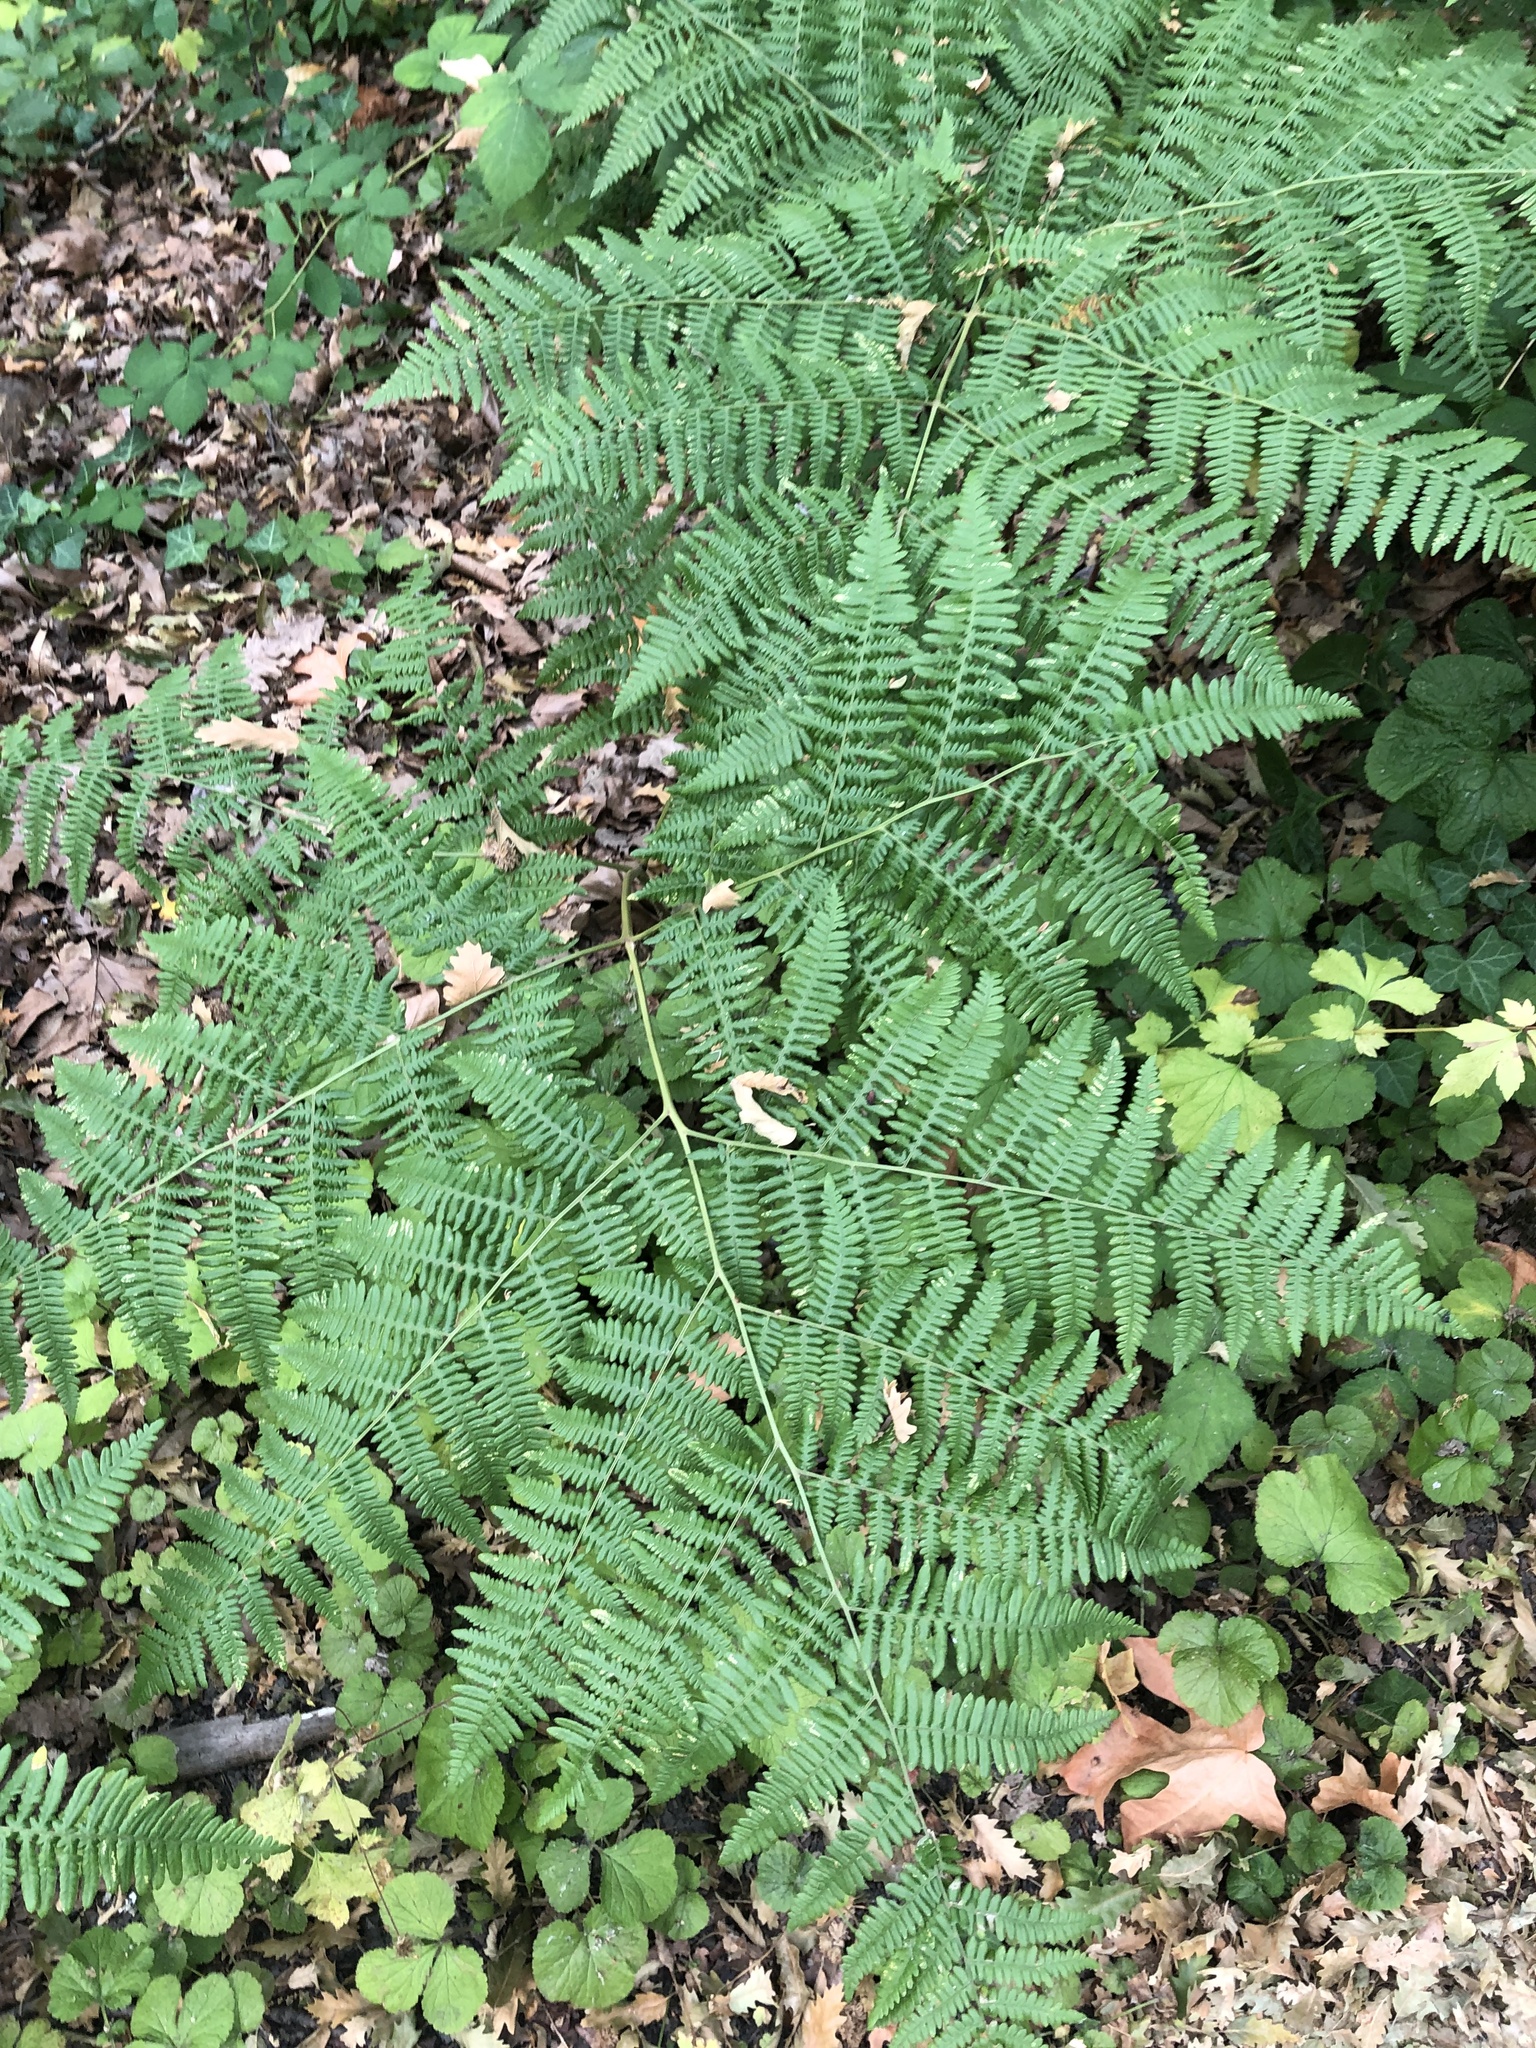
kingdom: Plantae
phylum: Tracheophyta
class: Polypodiopsida
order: Polypodiales
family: Dennstaedtiaceae
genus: Pteridium
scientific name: Pteridium aquilinum
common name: Bracken
